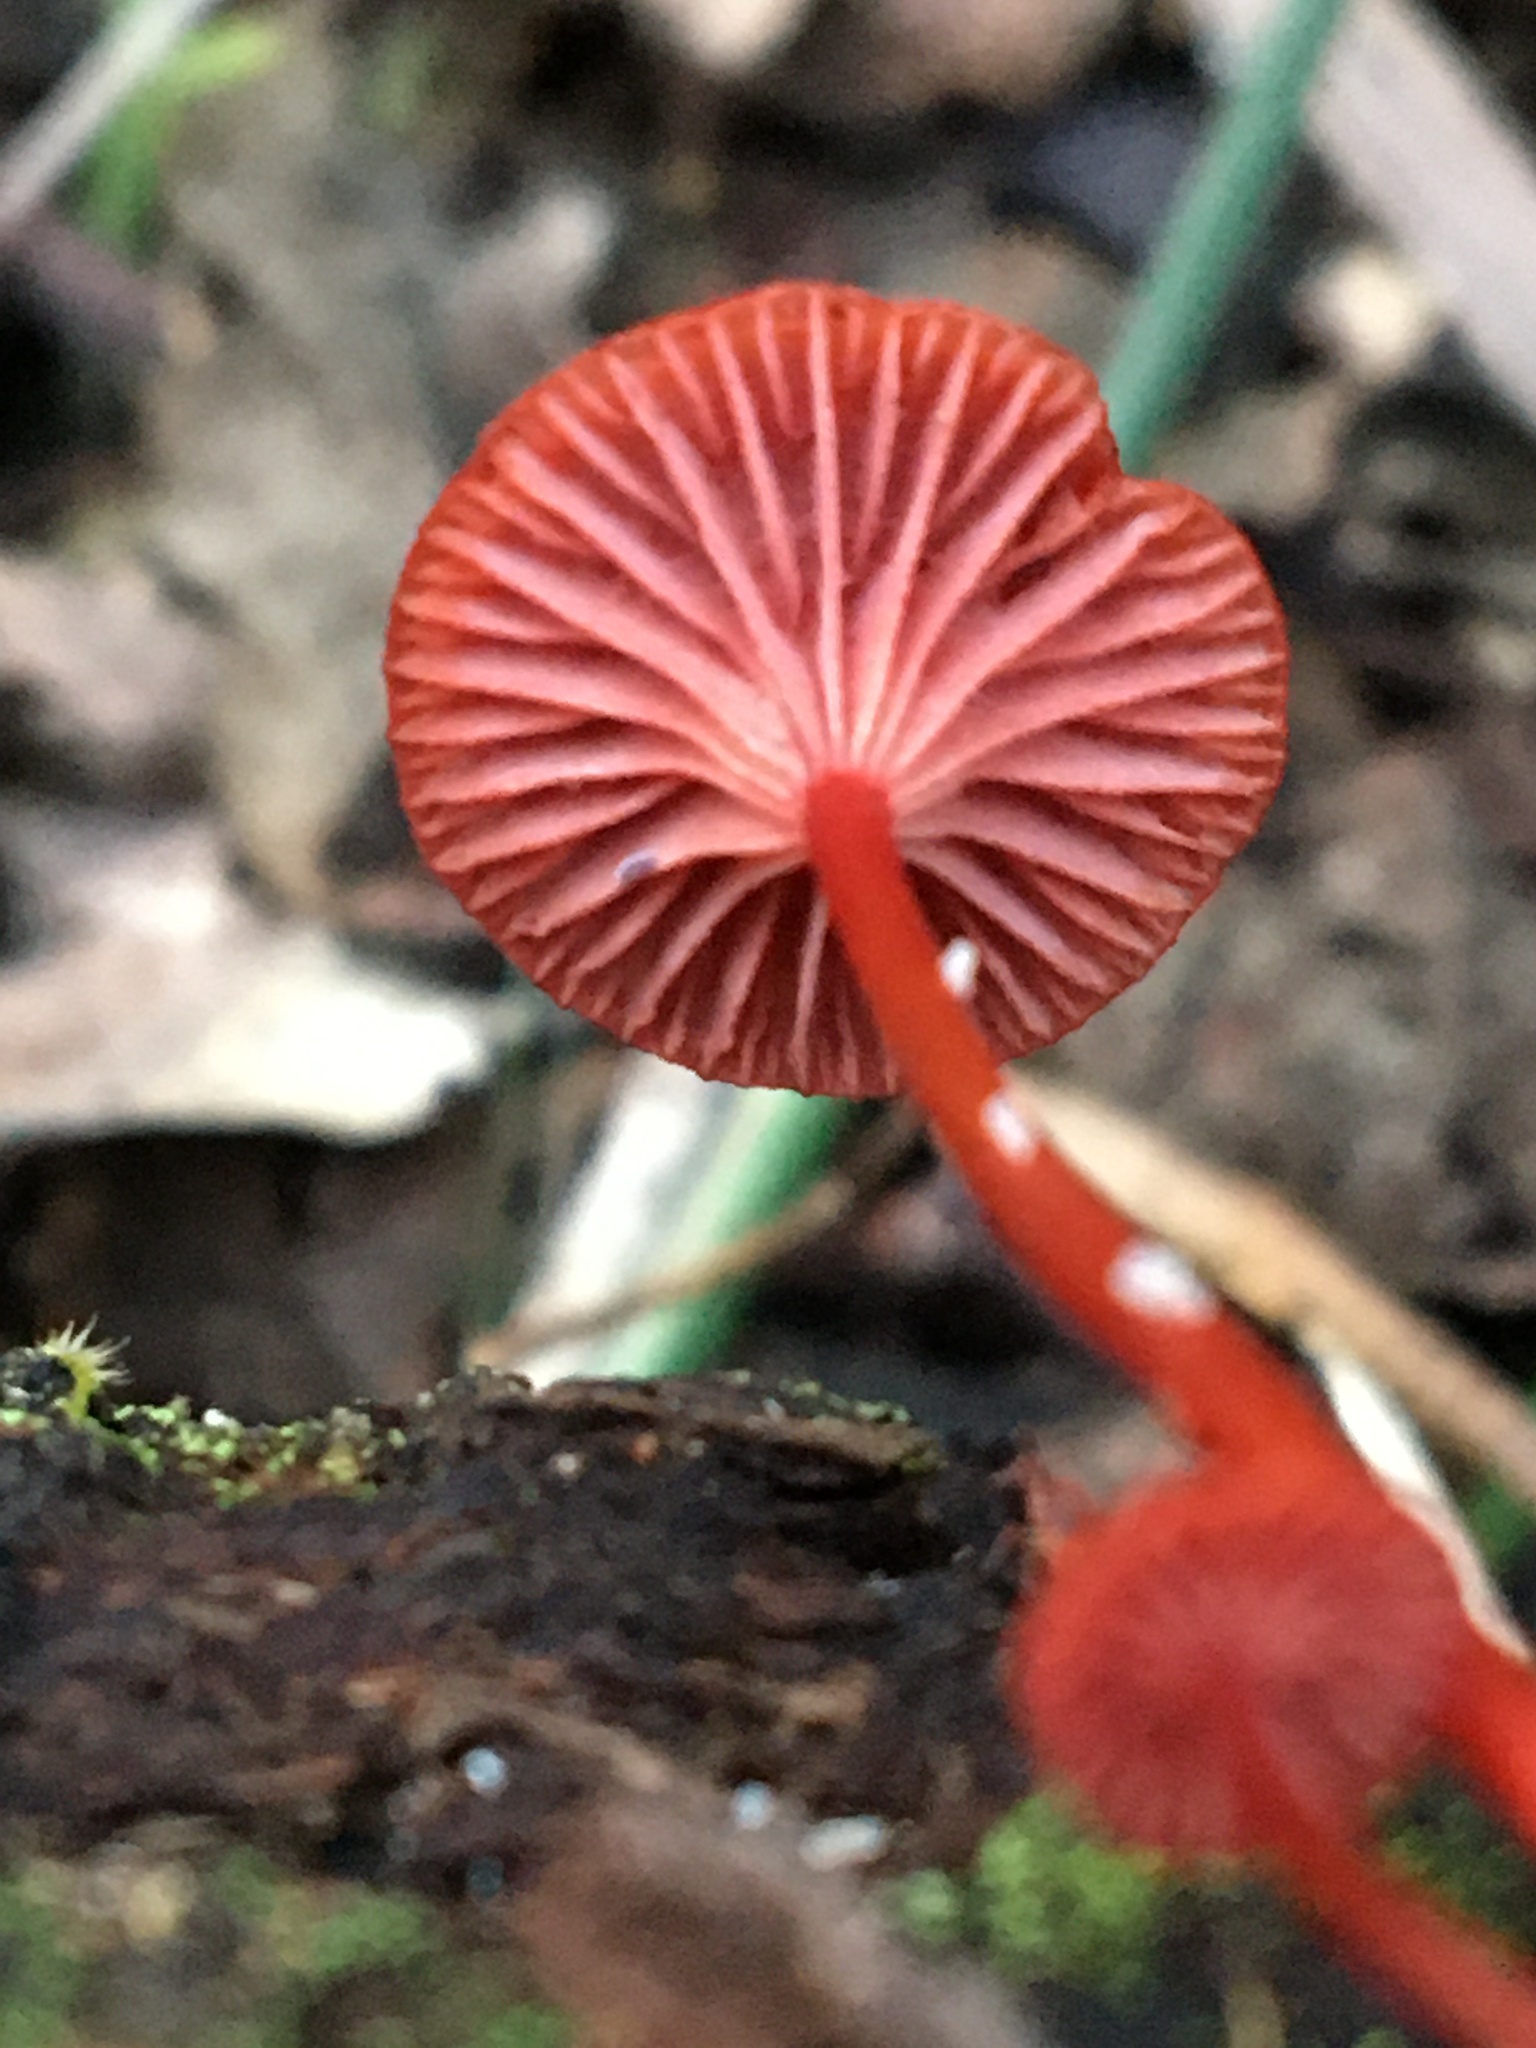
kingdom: Fungi
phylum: Basidiomycota
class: Agaricomycetes
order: Agaricales
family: Mycenaceae
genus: Cruentomycena
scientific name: Cruentomycena viscidocruenta
